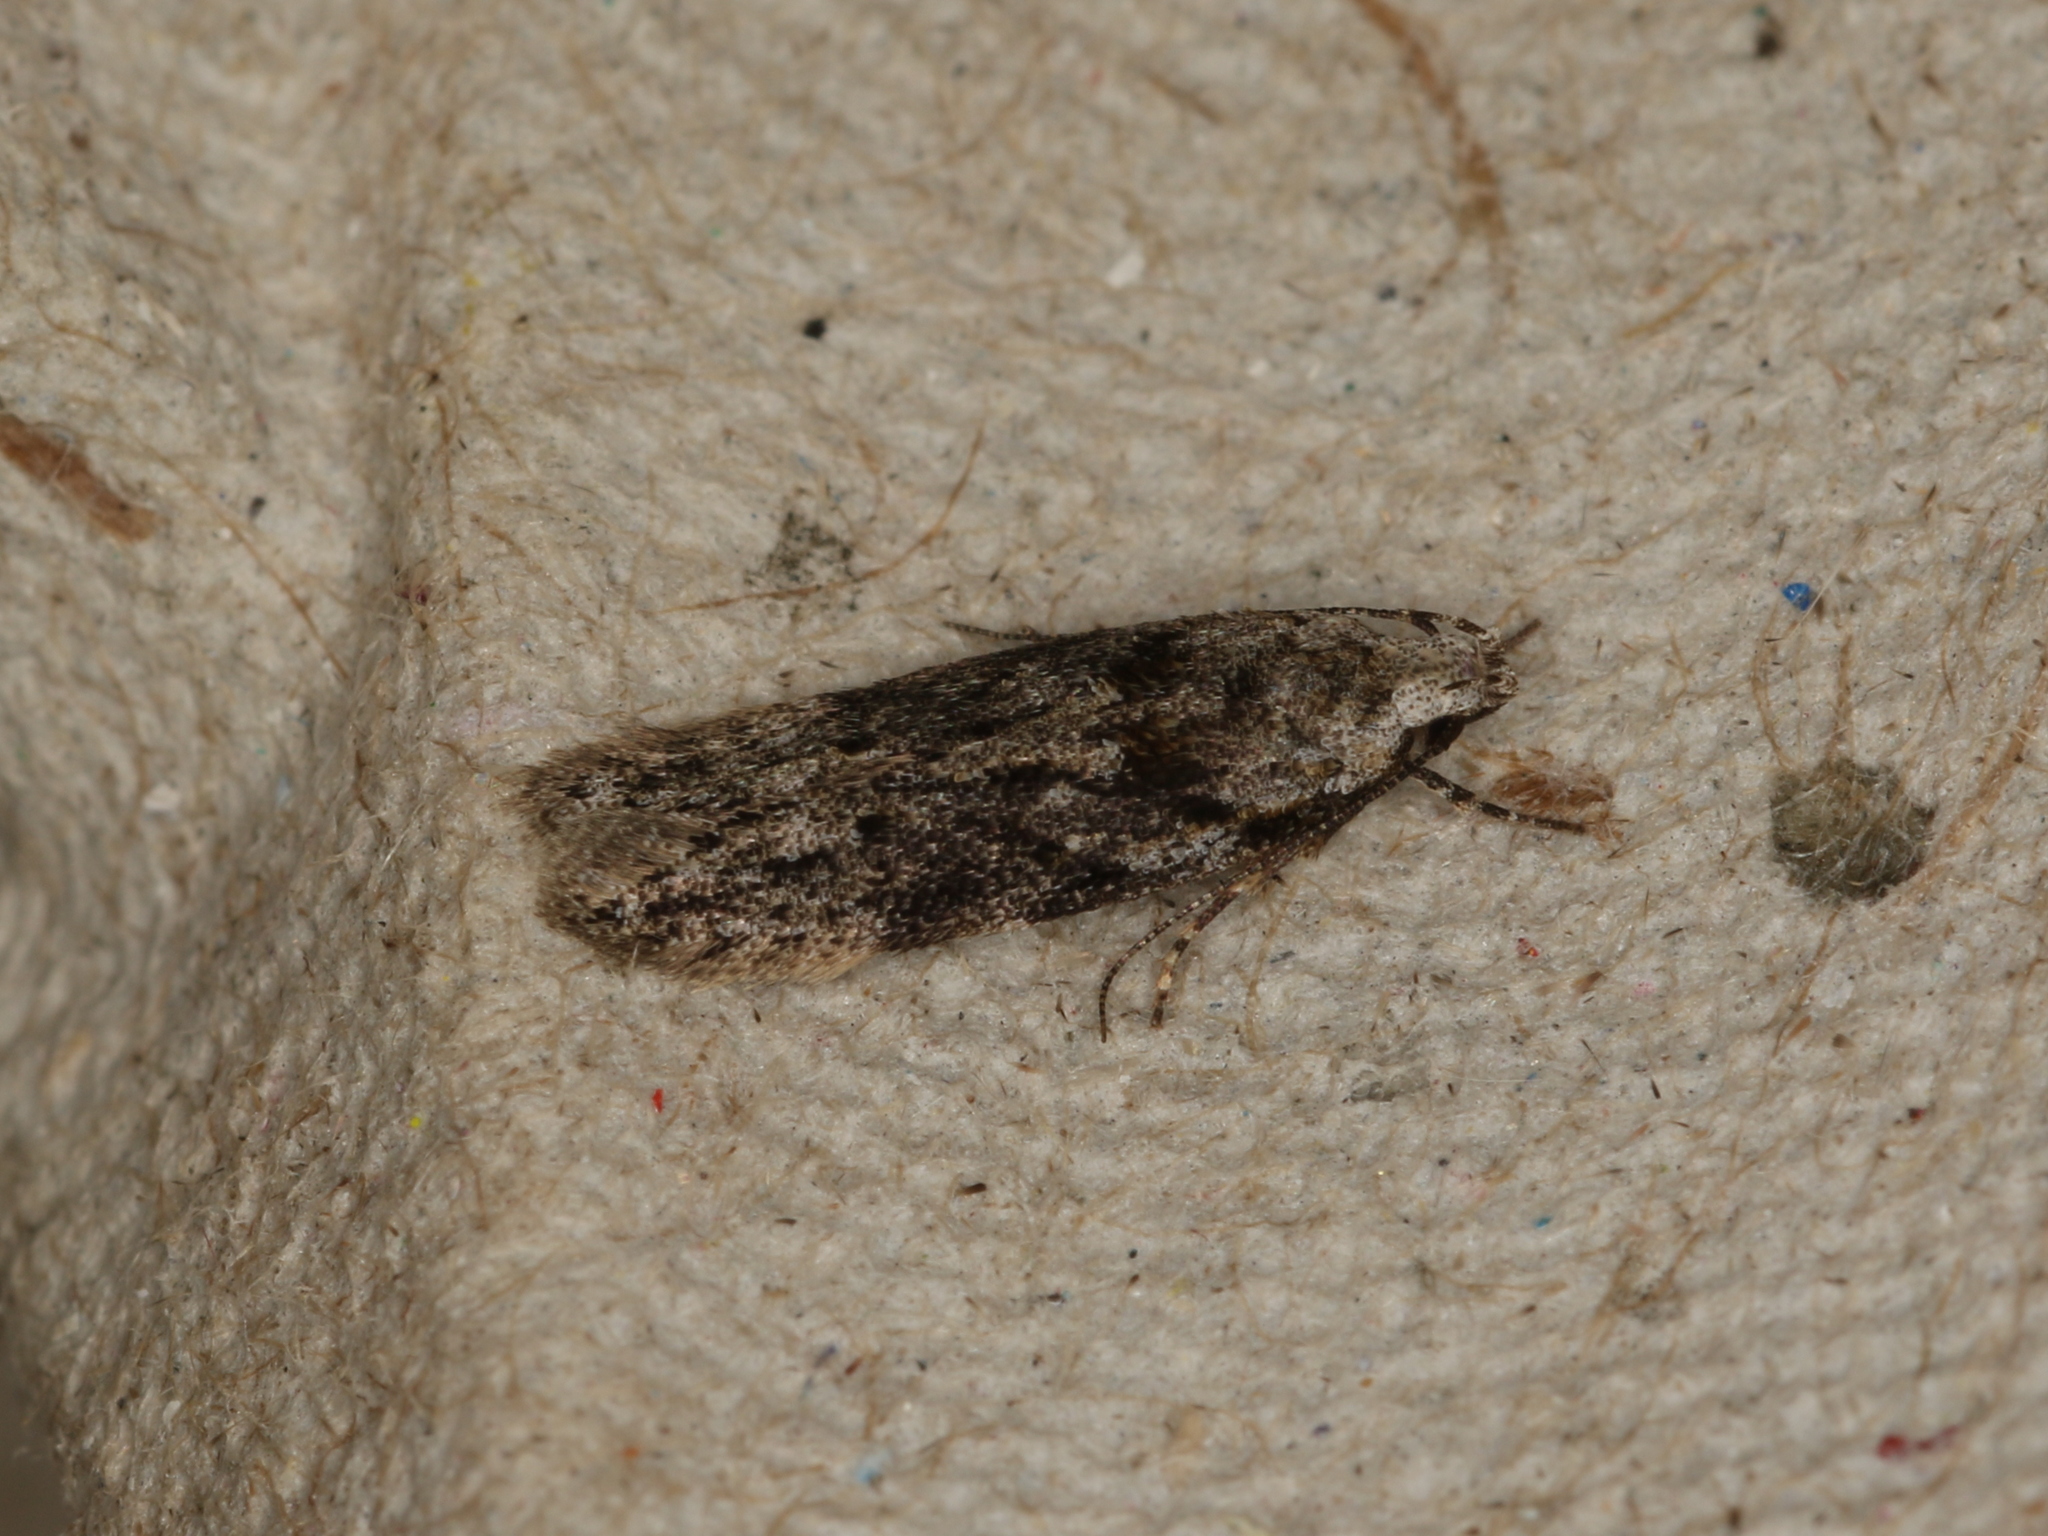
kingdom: Animalia
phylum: Arthropoda
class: Insecta
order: Lepidoptera
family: Gelechiidae
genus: Carpatolechia
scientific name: Carpatolechia fugitivella
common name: Elm groundling
